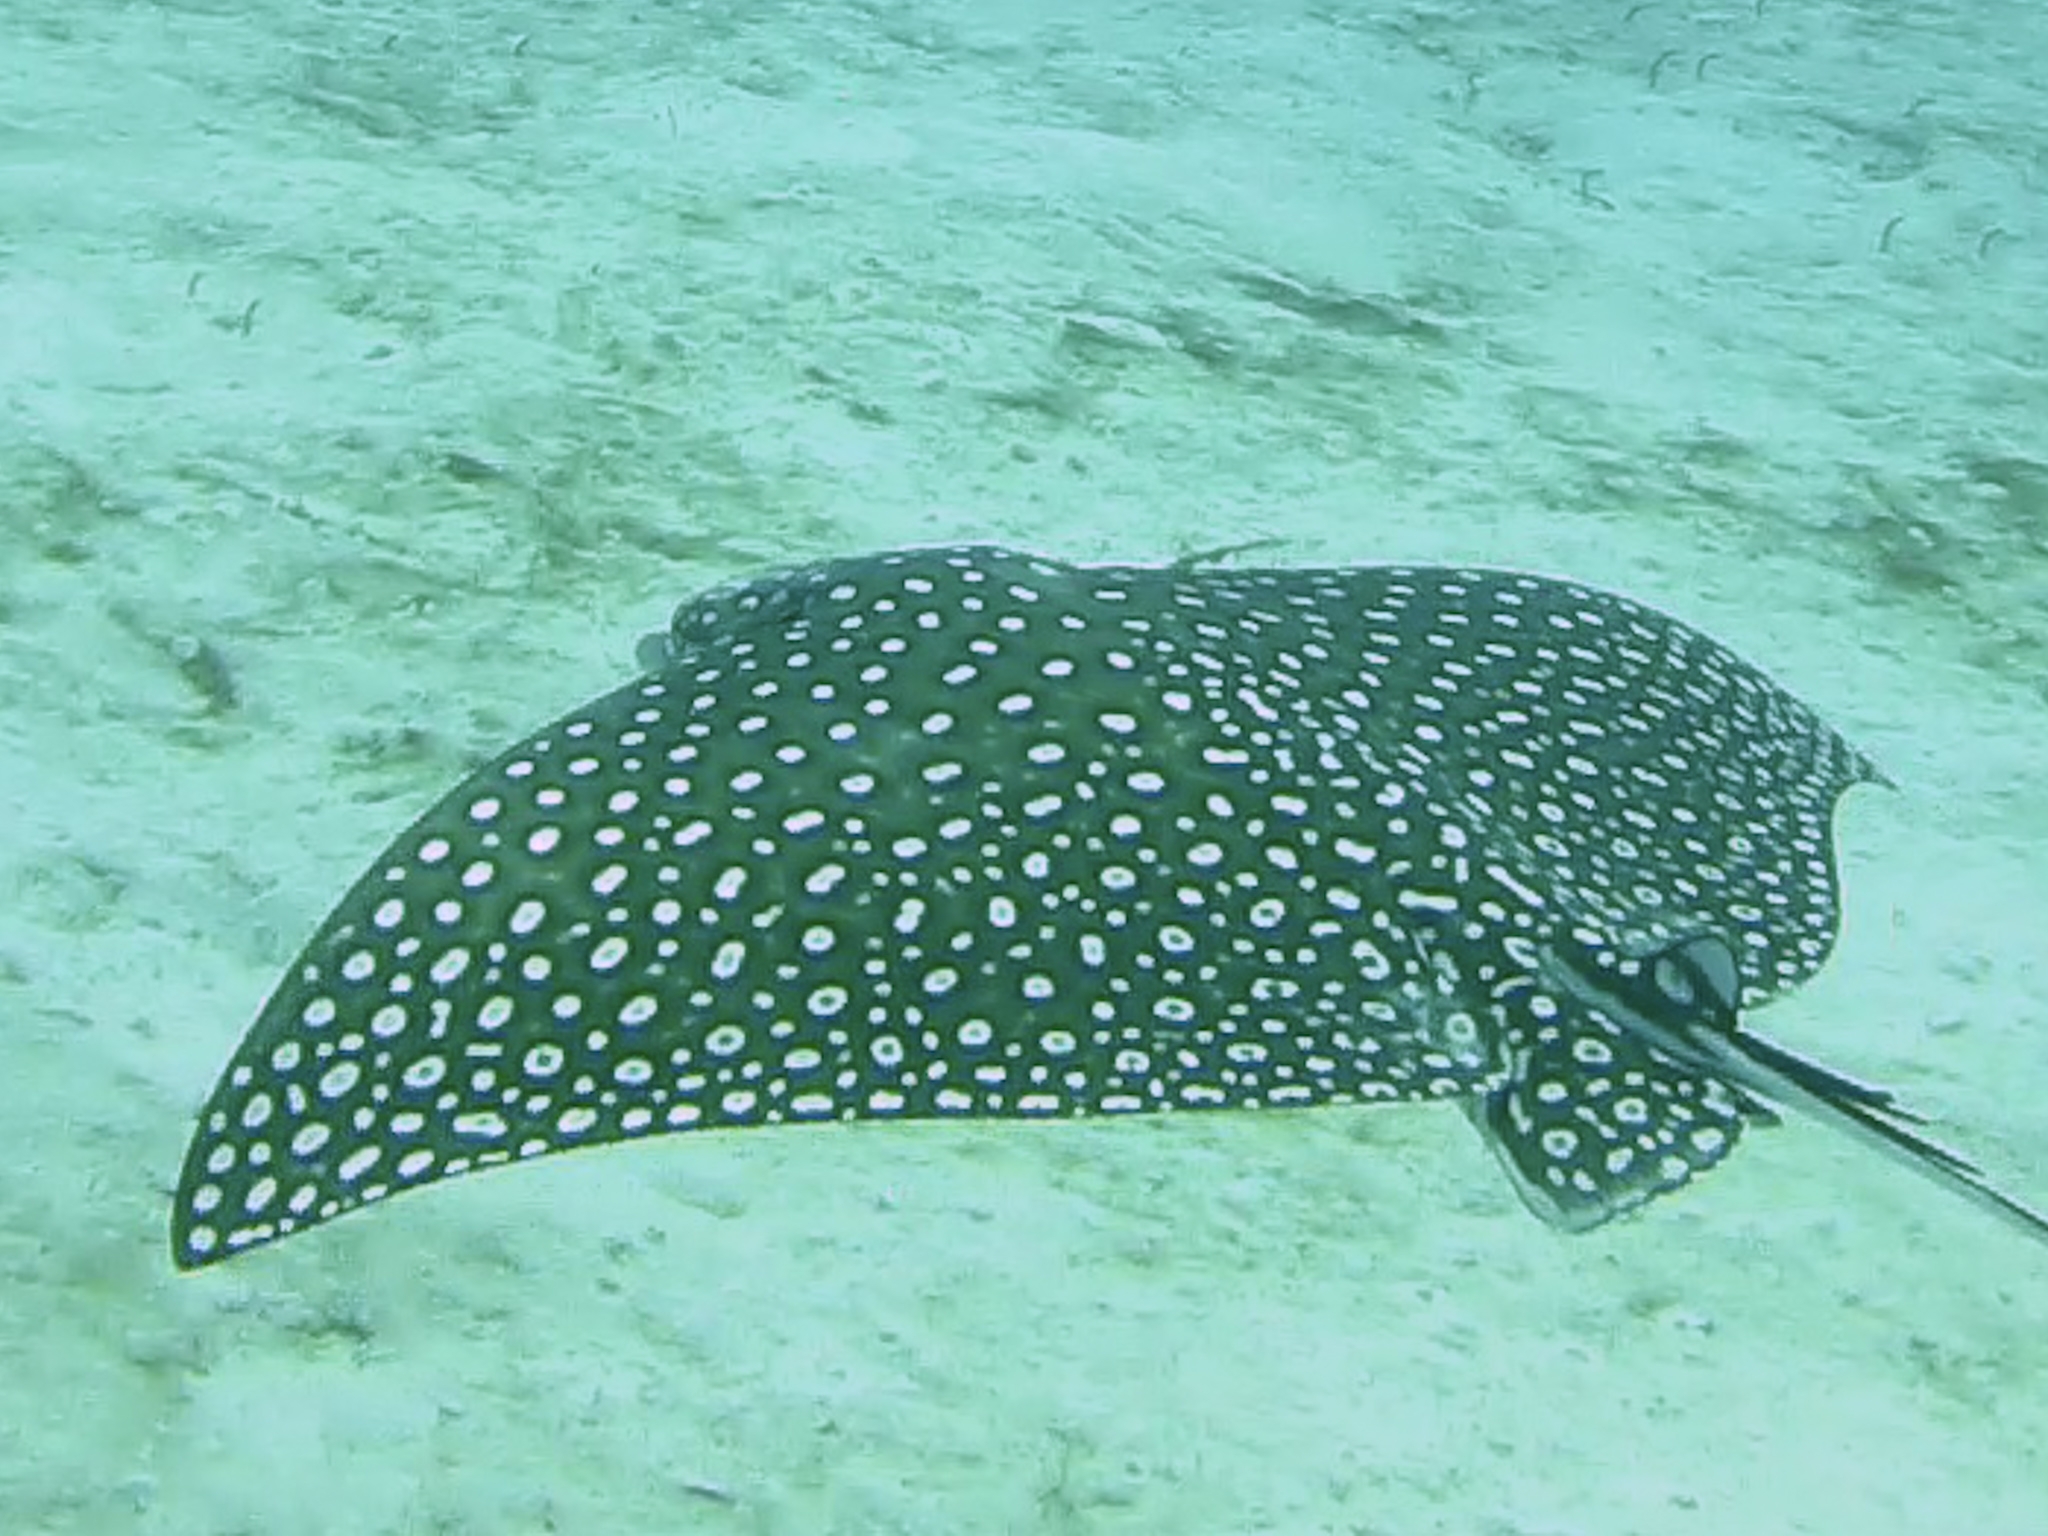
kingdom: Animalia
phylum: Chordata
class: Elasmobranchii
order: Myliobatiformes
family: Myliobatidae
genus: Aetobatus
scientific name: Aetobatus narinari
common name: Spotted eagle ray
